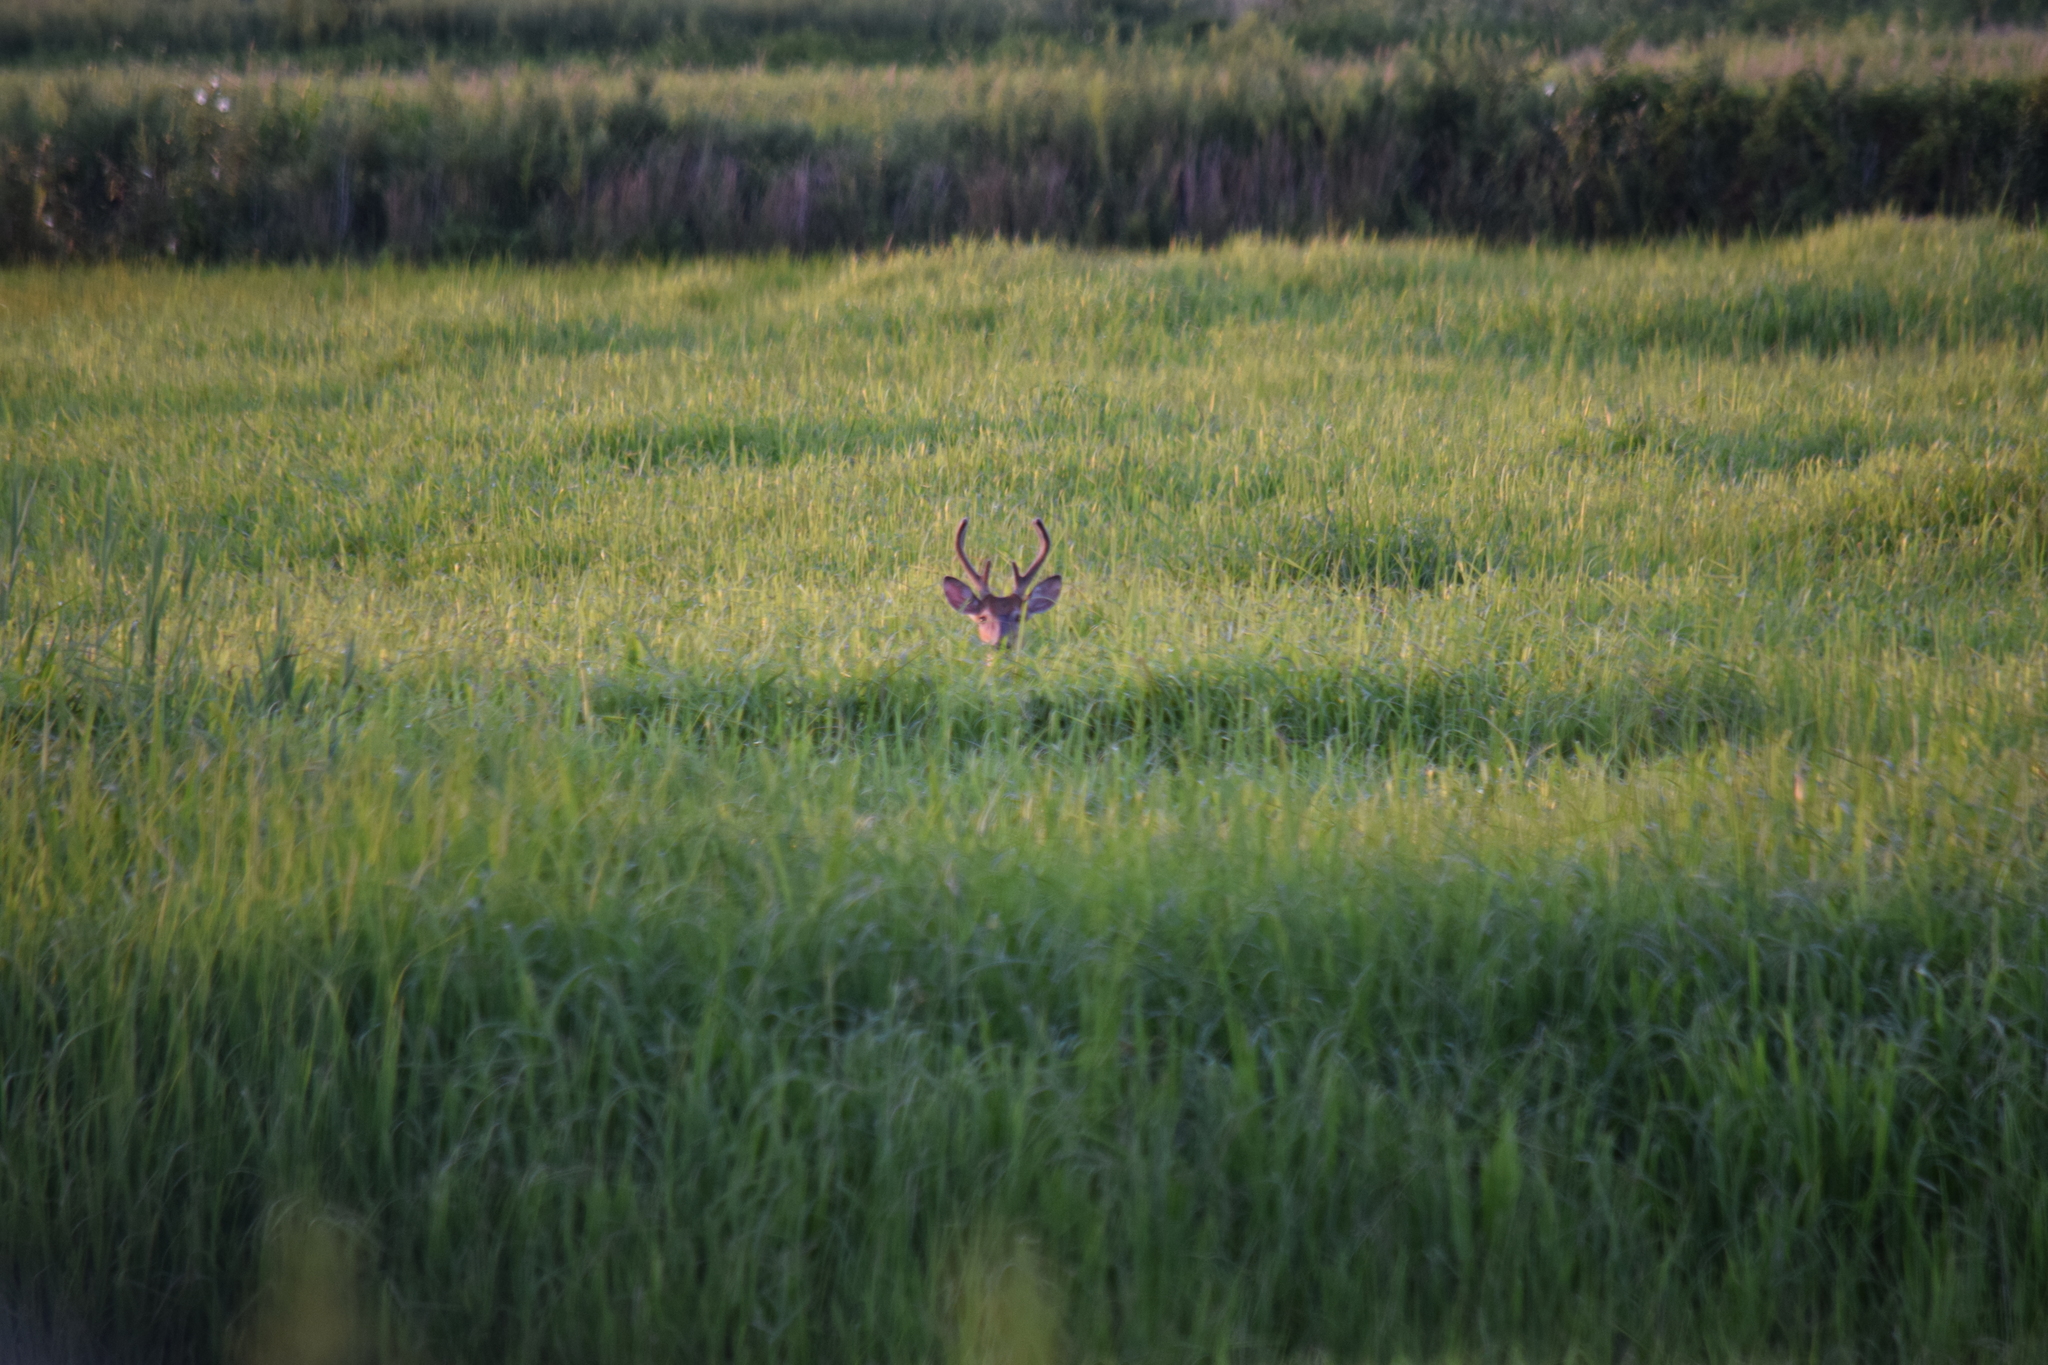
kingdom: Animalia
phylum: Chordata
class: Mammalia
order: Artiodactyla
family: Cervidae
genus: Odocoileus
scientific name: Odocoileus virginianus
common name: White-tailed deer
